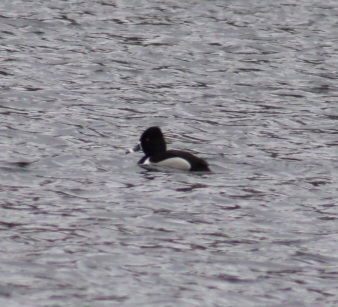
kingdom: Animalia
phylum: Chordata
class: Aves
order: Anseriformes
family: Anatidae
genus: Aythya
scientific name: Aythya collaris
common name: Ring-necked duck
